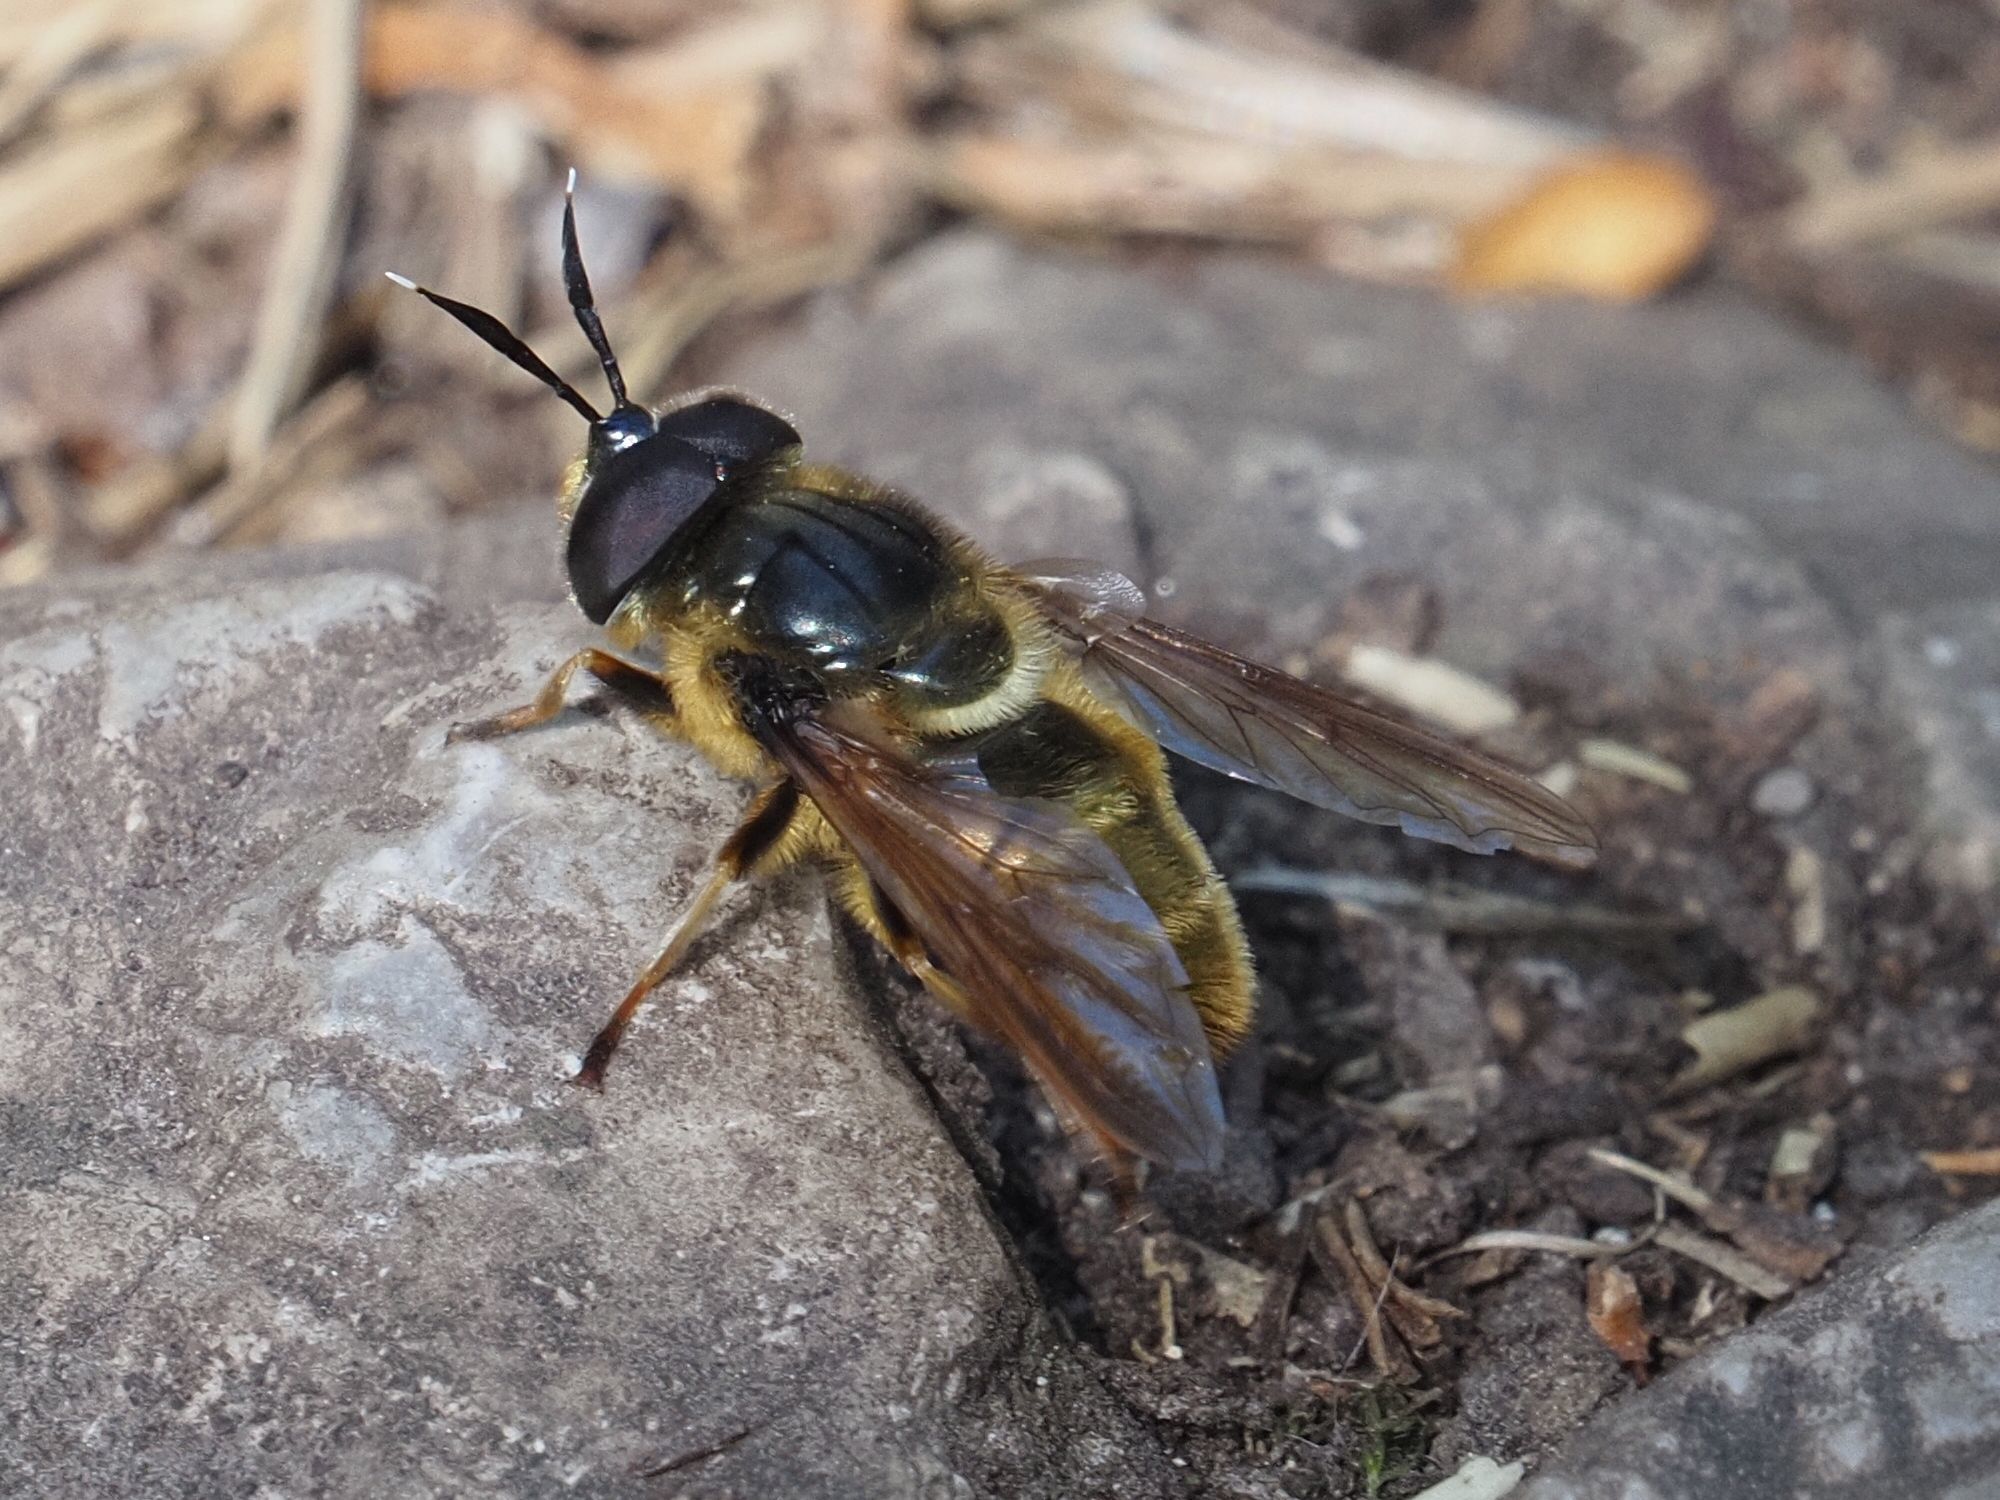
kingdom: Animalia
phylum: Arthropoda
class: Insecta
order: Diptera
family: Syrphidae
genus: Callicera
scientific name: Callicera aenea
